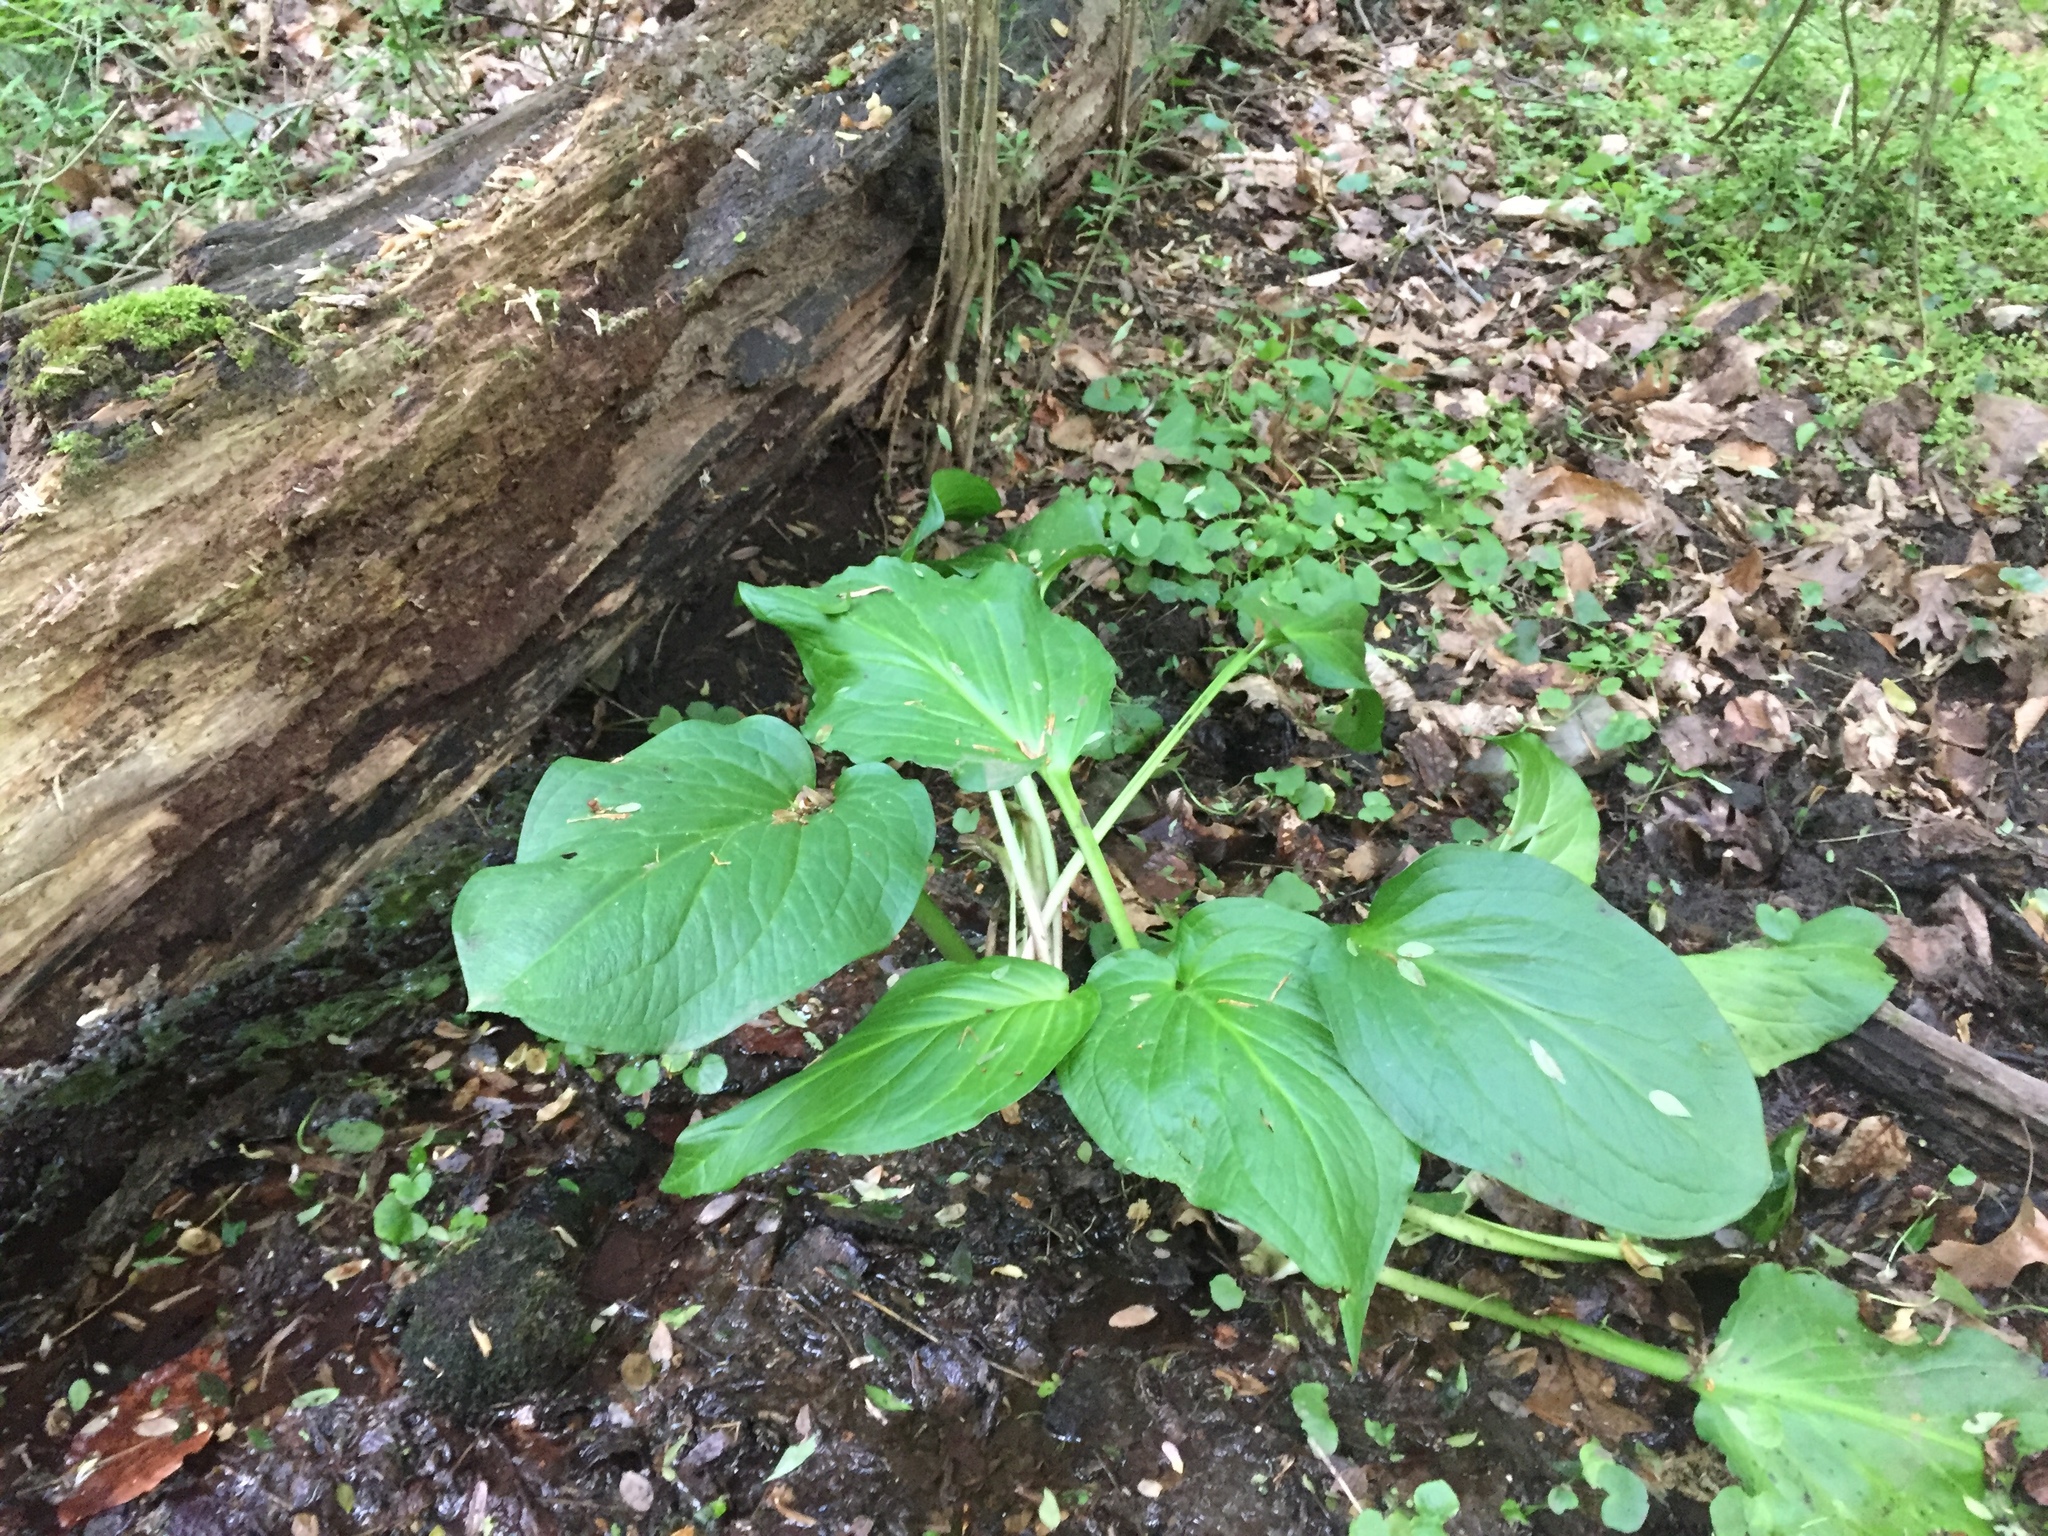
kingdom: Plantae
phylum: Tracheophyta
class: Liliopsida
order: Alismatales
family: Araceae
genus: Symplocarpus
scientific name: Symplocarpus foetidus
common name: Eastern skunk cabbage
